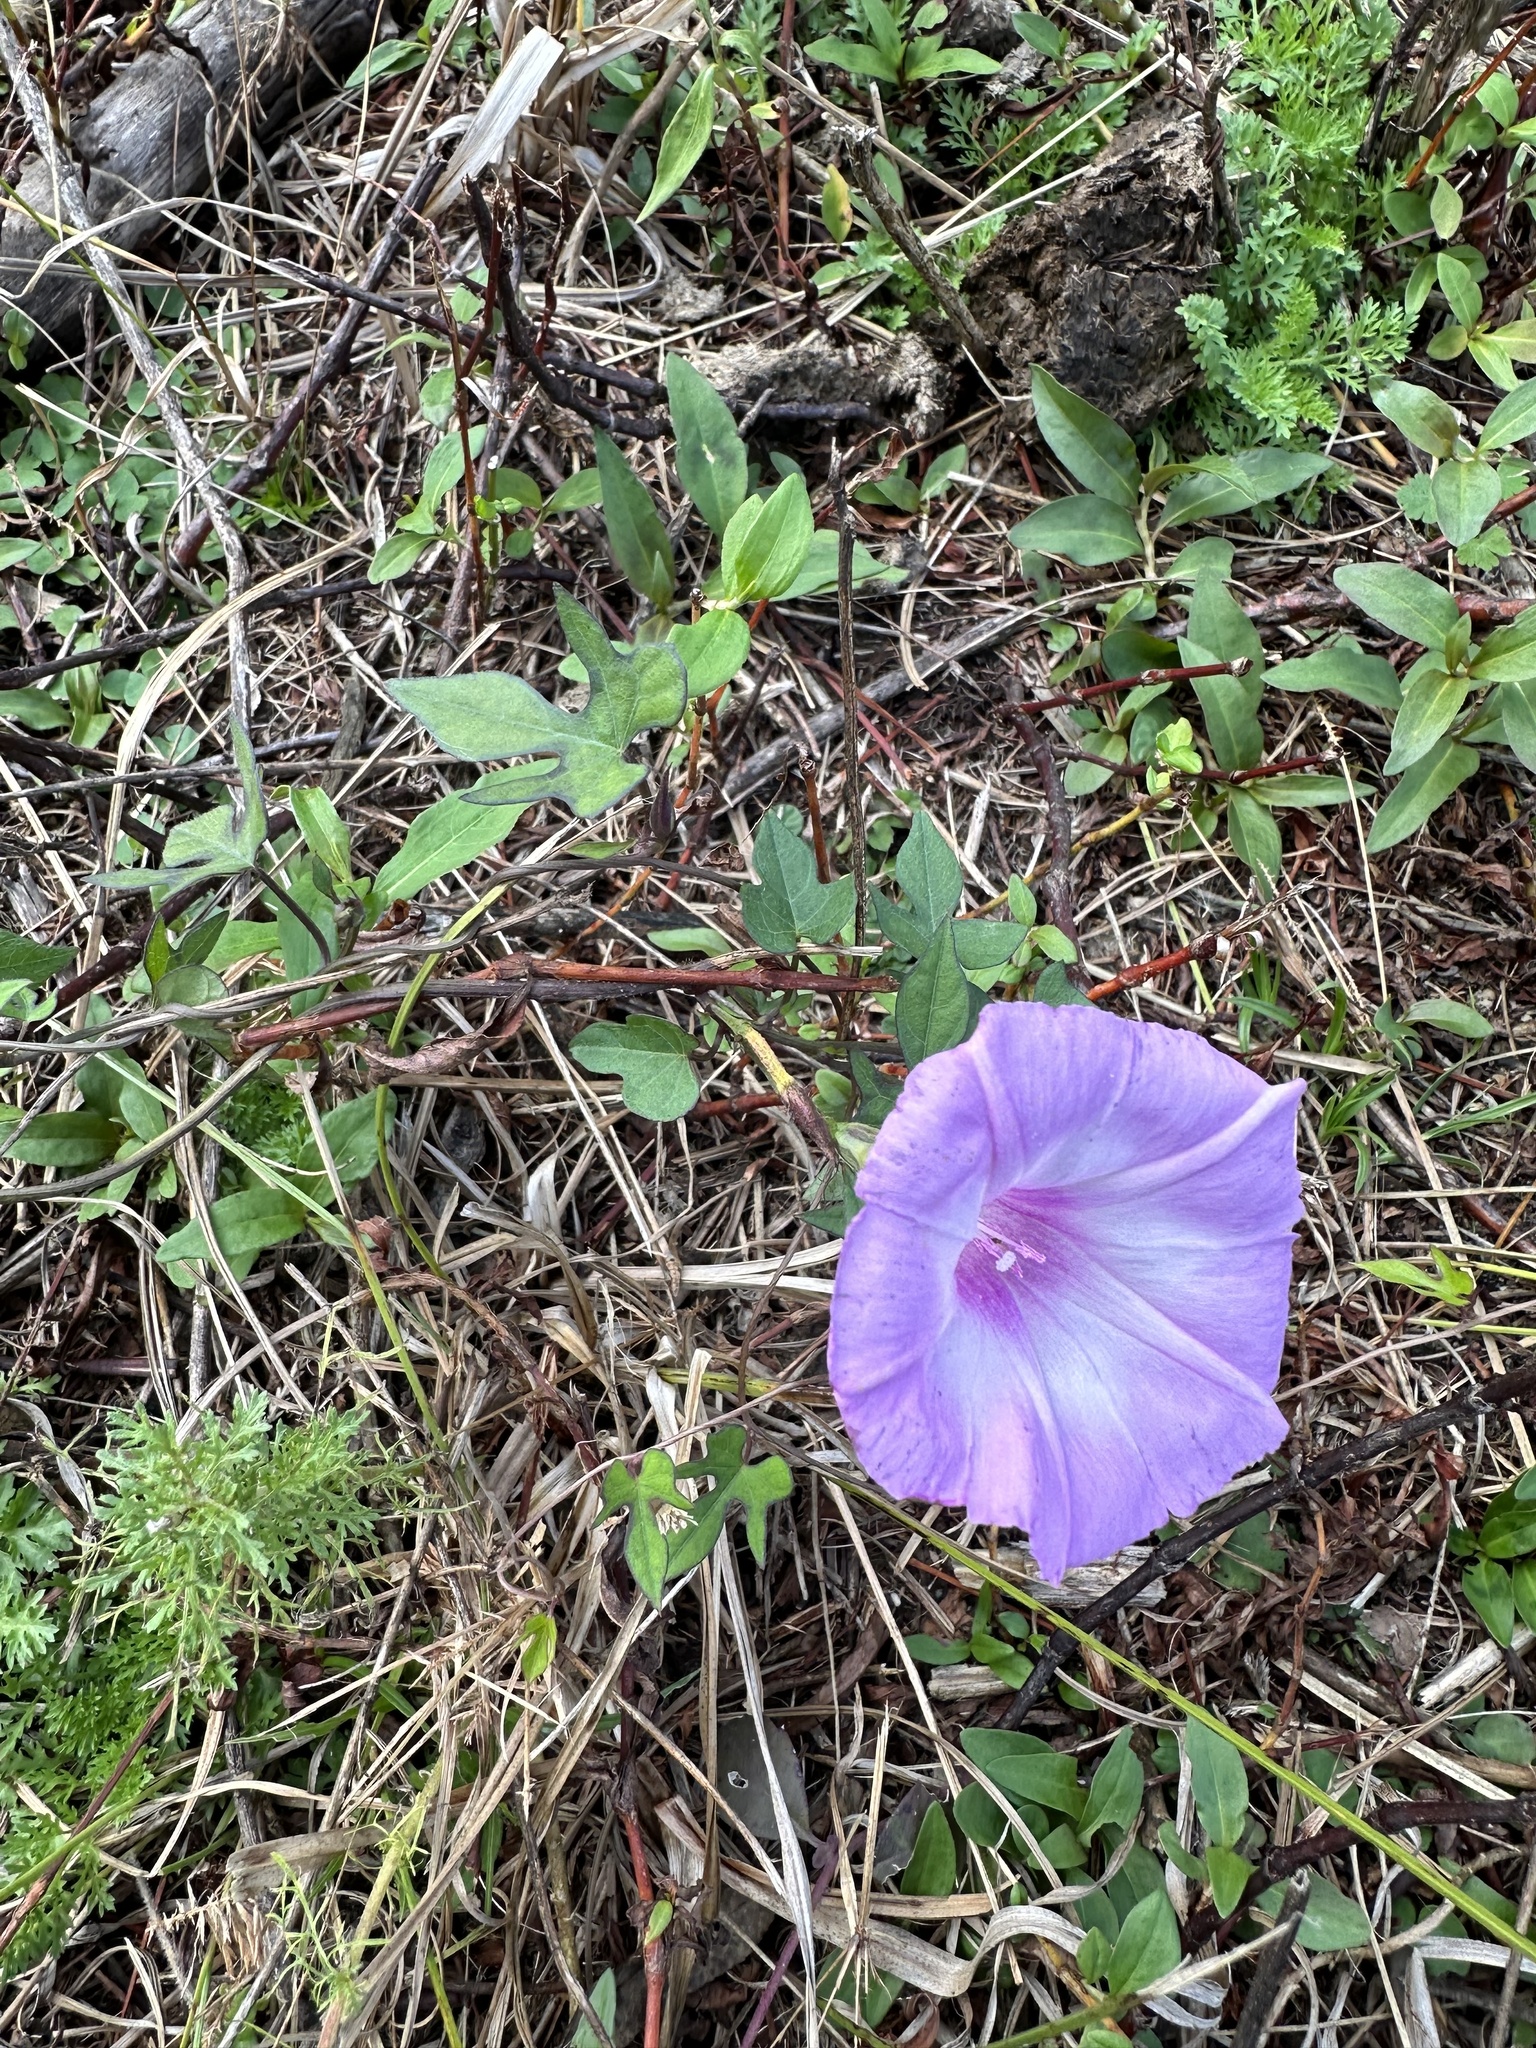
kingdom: Plantae
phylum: Tracheophyta
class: Magnoliopsida
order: Solanales
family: Convolvulaceae
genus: Ipomoea
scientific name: Ipomoea cordatotriloba
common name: Cotton morning glory
